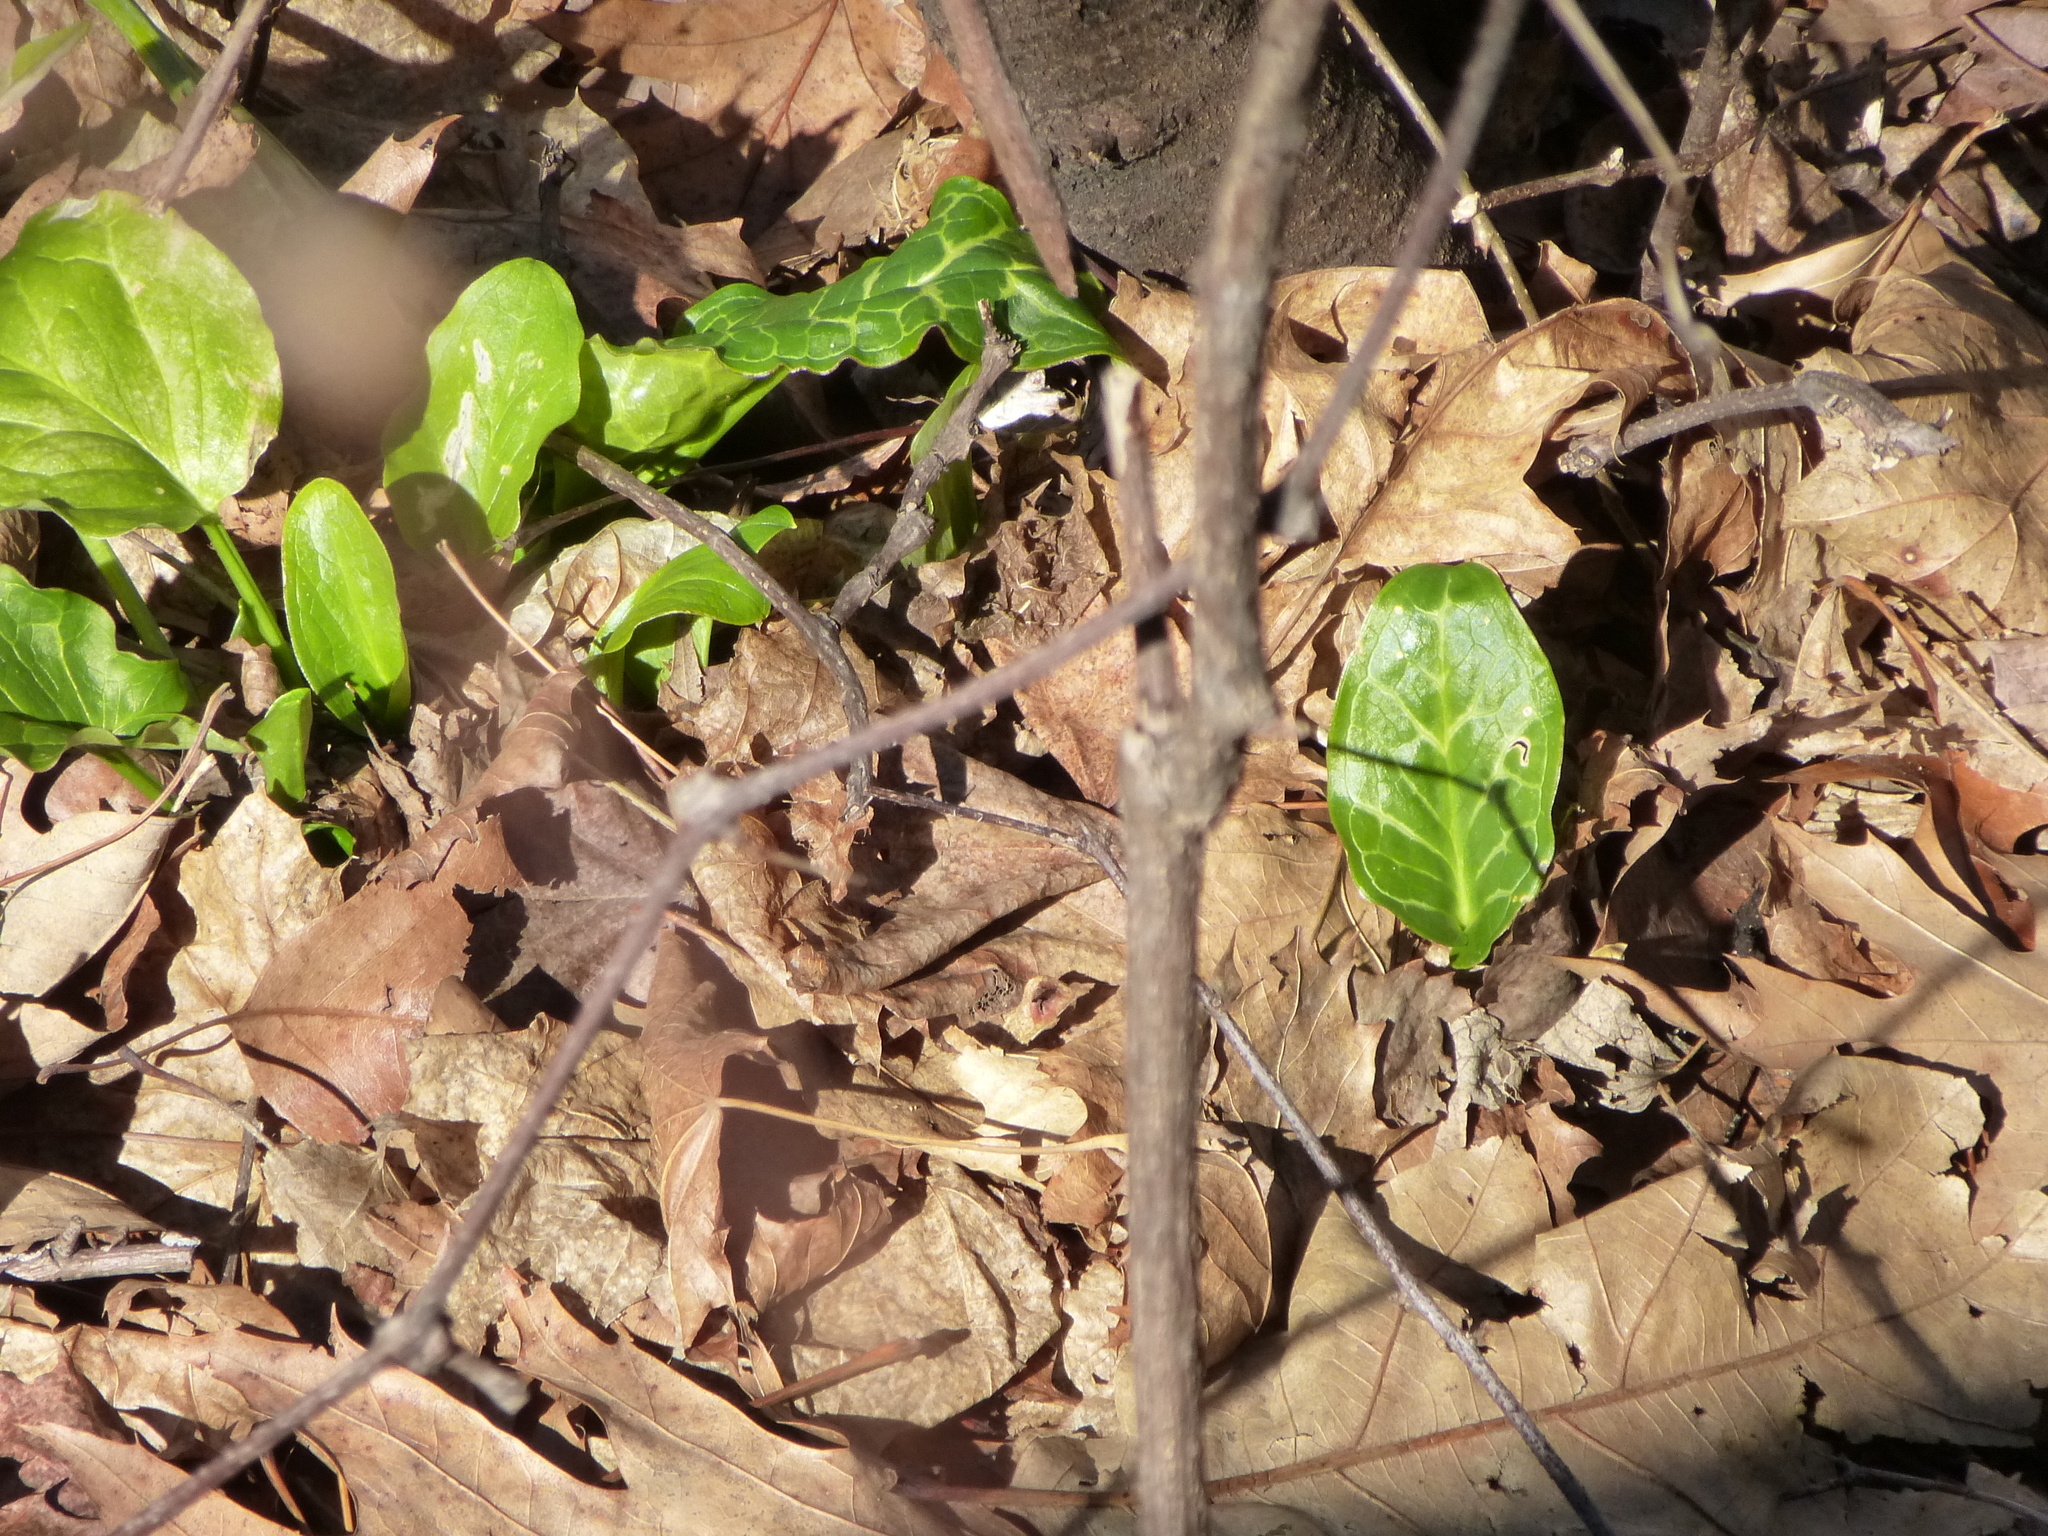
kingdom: Plantae
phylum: Tracheophyta
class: Liliopsida
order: Alismatales
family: Araceae
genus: Arum
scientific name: Arum italicum
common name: Italian lords-and-ladies
